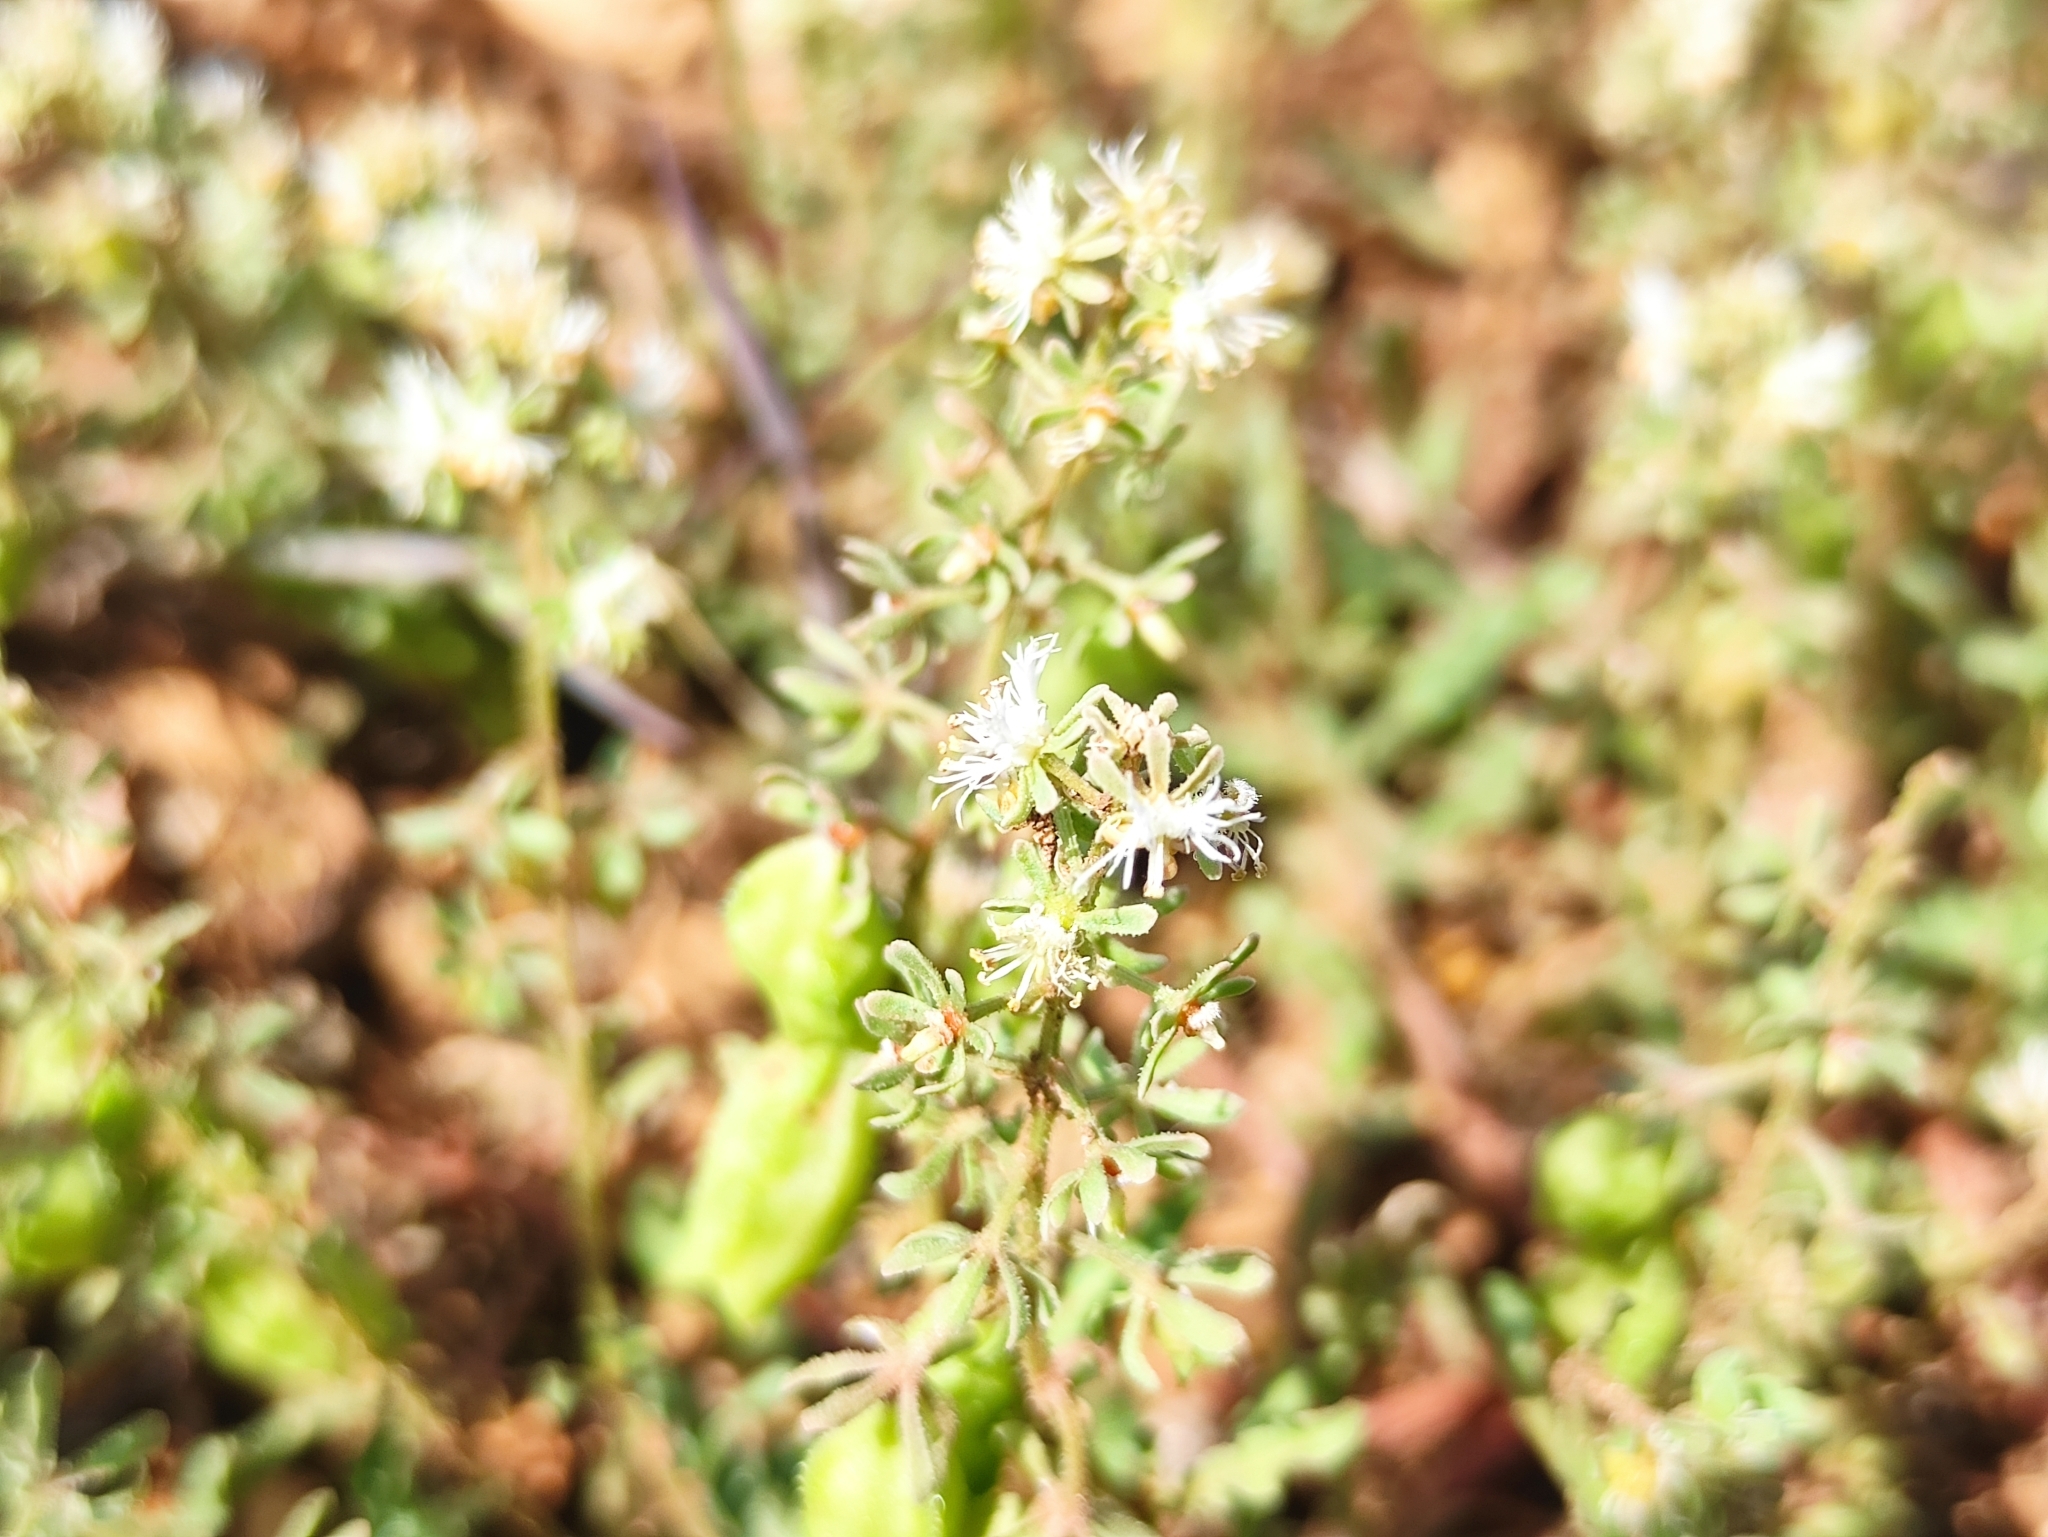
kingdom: Plantae
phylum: Tracheophyta
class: Magnoliopsida
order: Brassicales
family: Resedaceae
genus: Reseda
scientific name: Reseda phyteuma
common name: Corn mignonette
